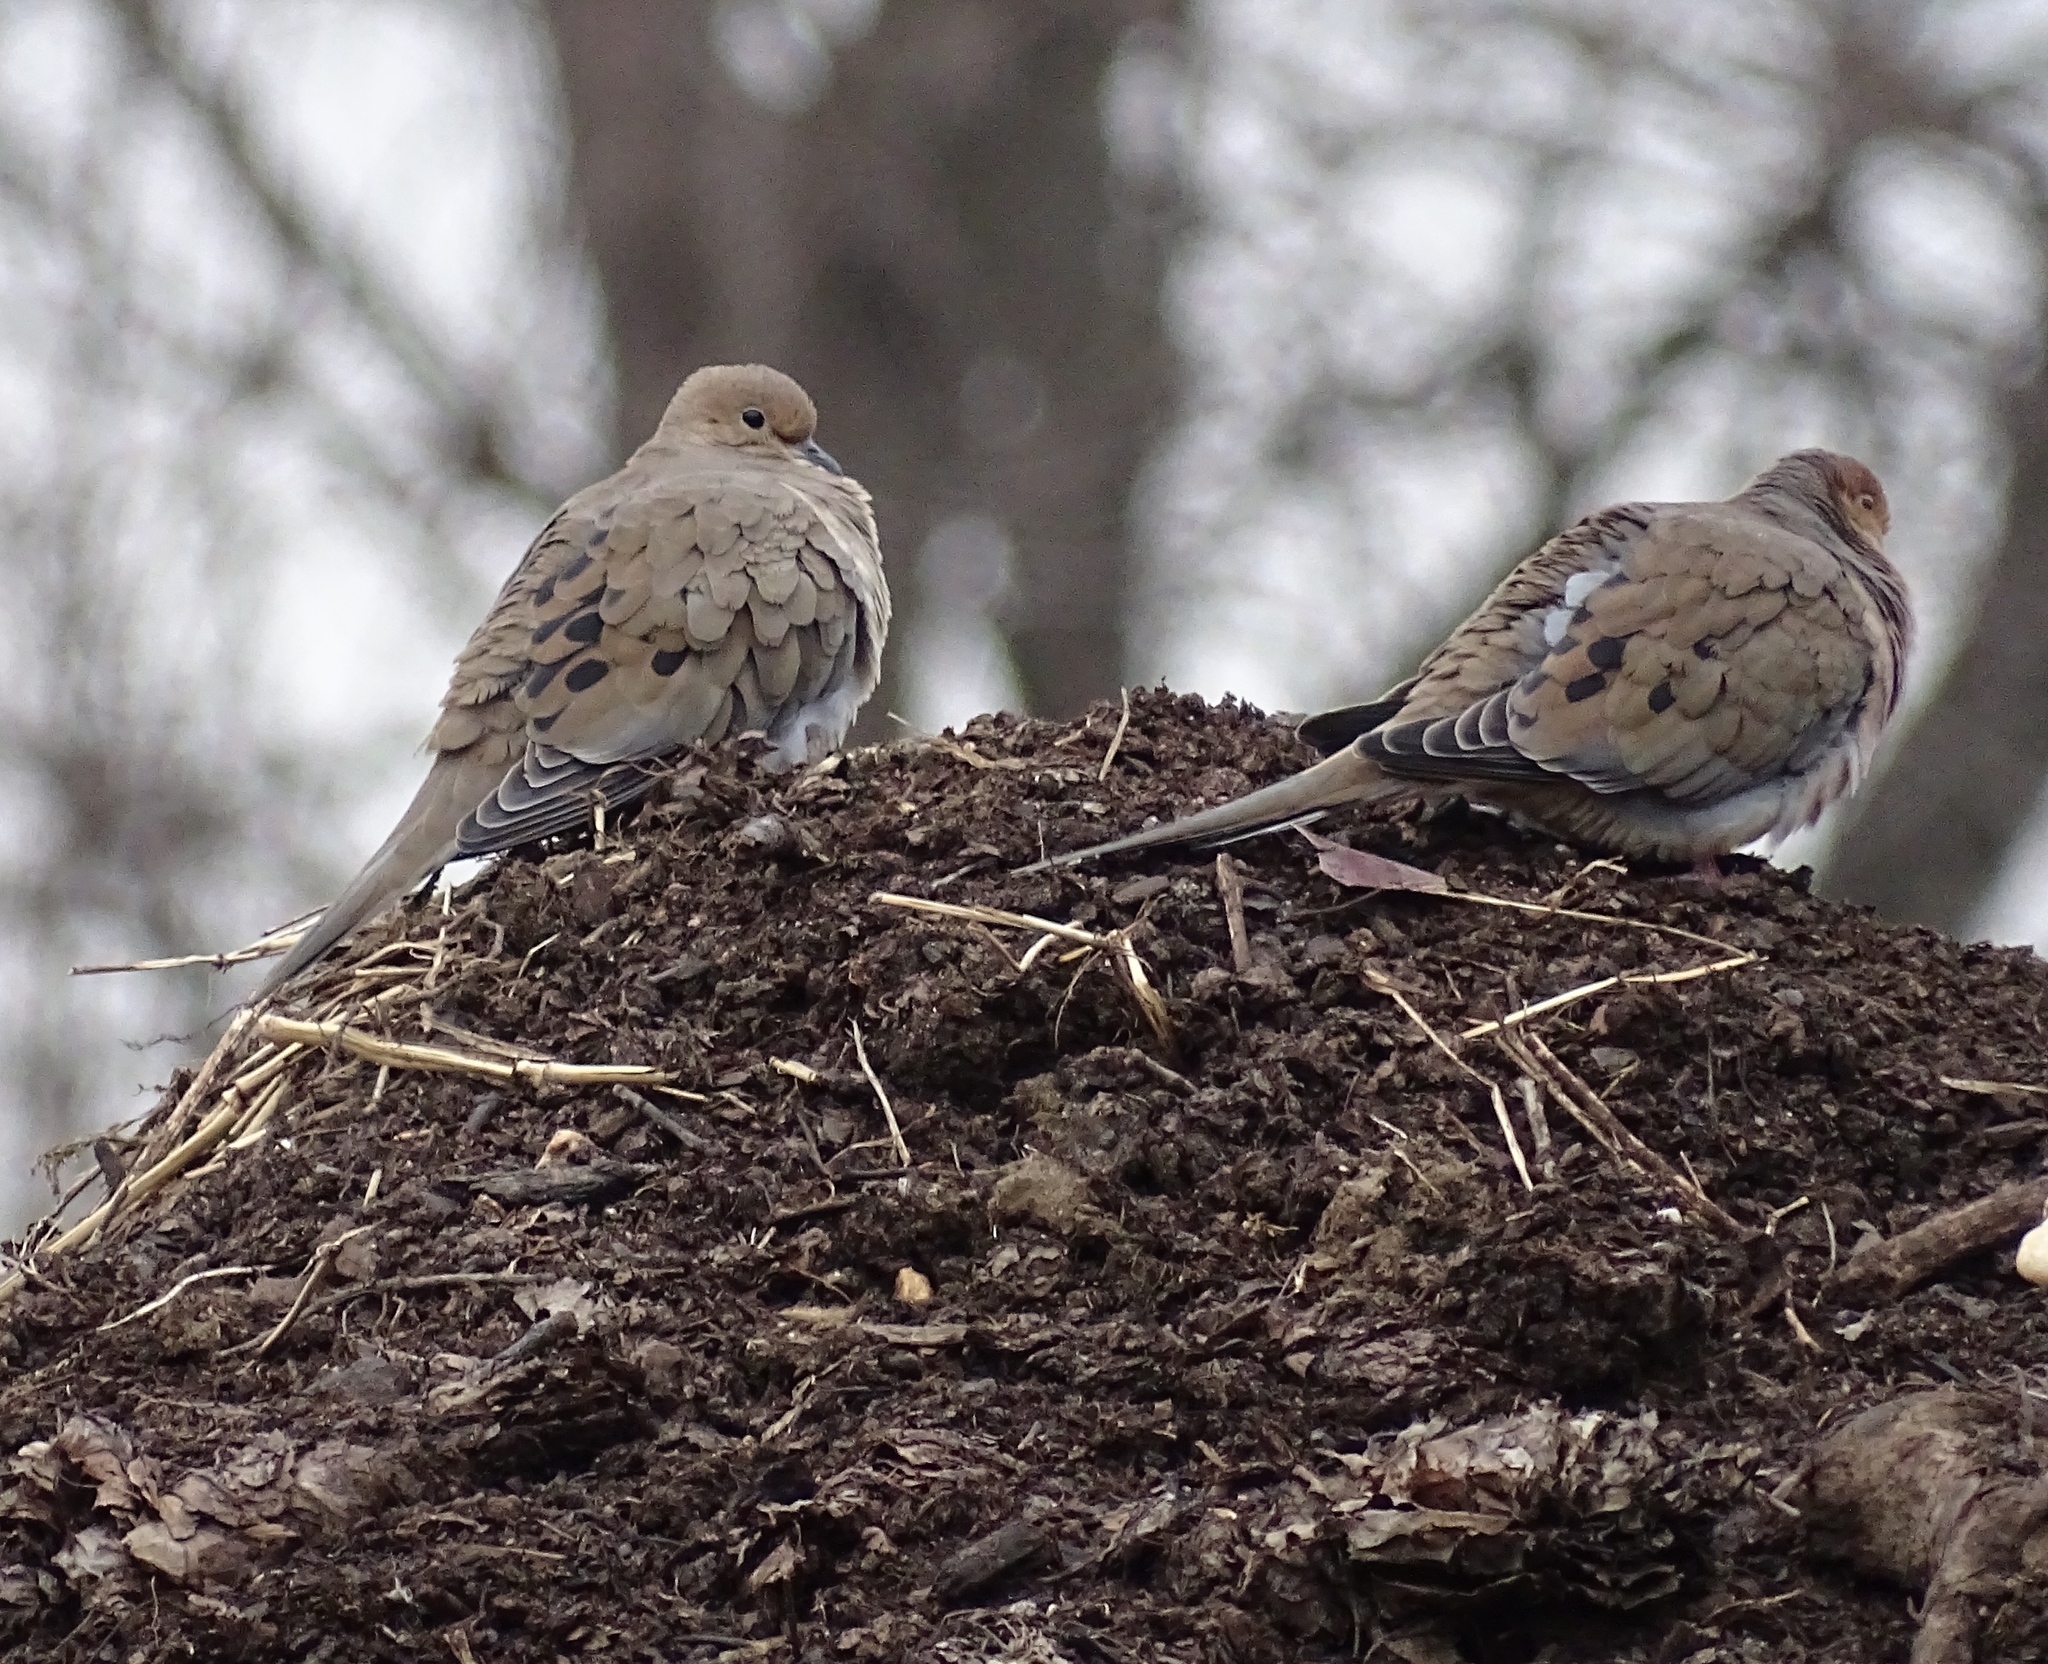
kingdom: Animalia
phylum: Chordata
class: Aves
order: Columbiformes
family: Columbidae
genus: Zenaida
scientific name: Zenaida macroura
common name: Mourning dove
